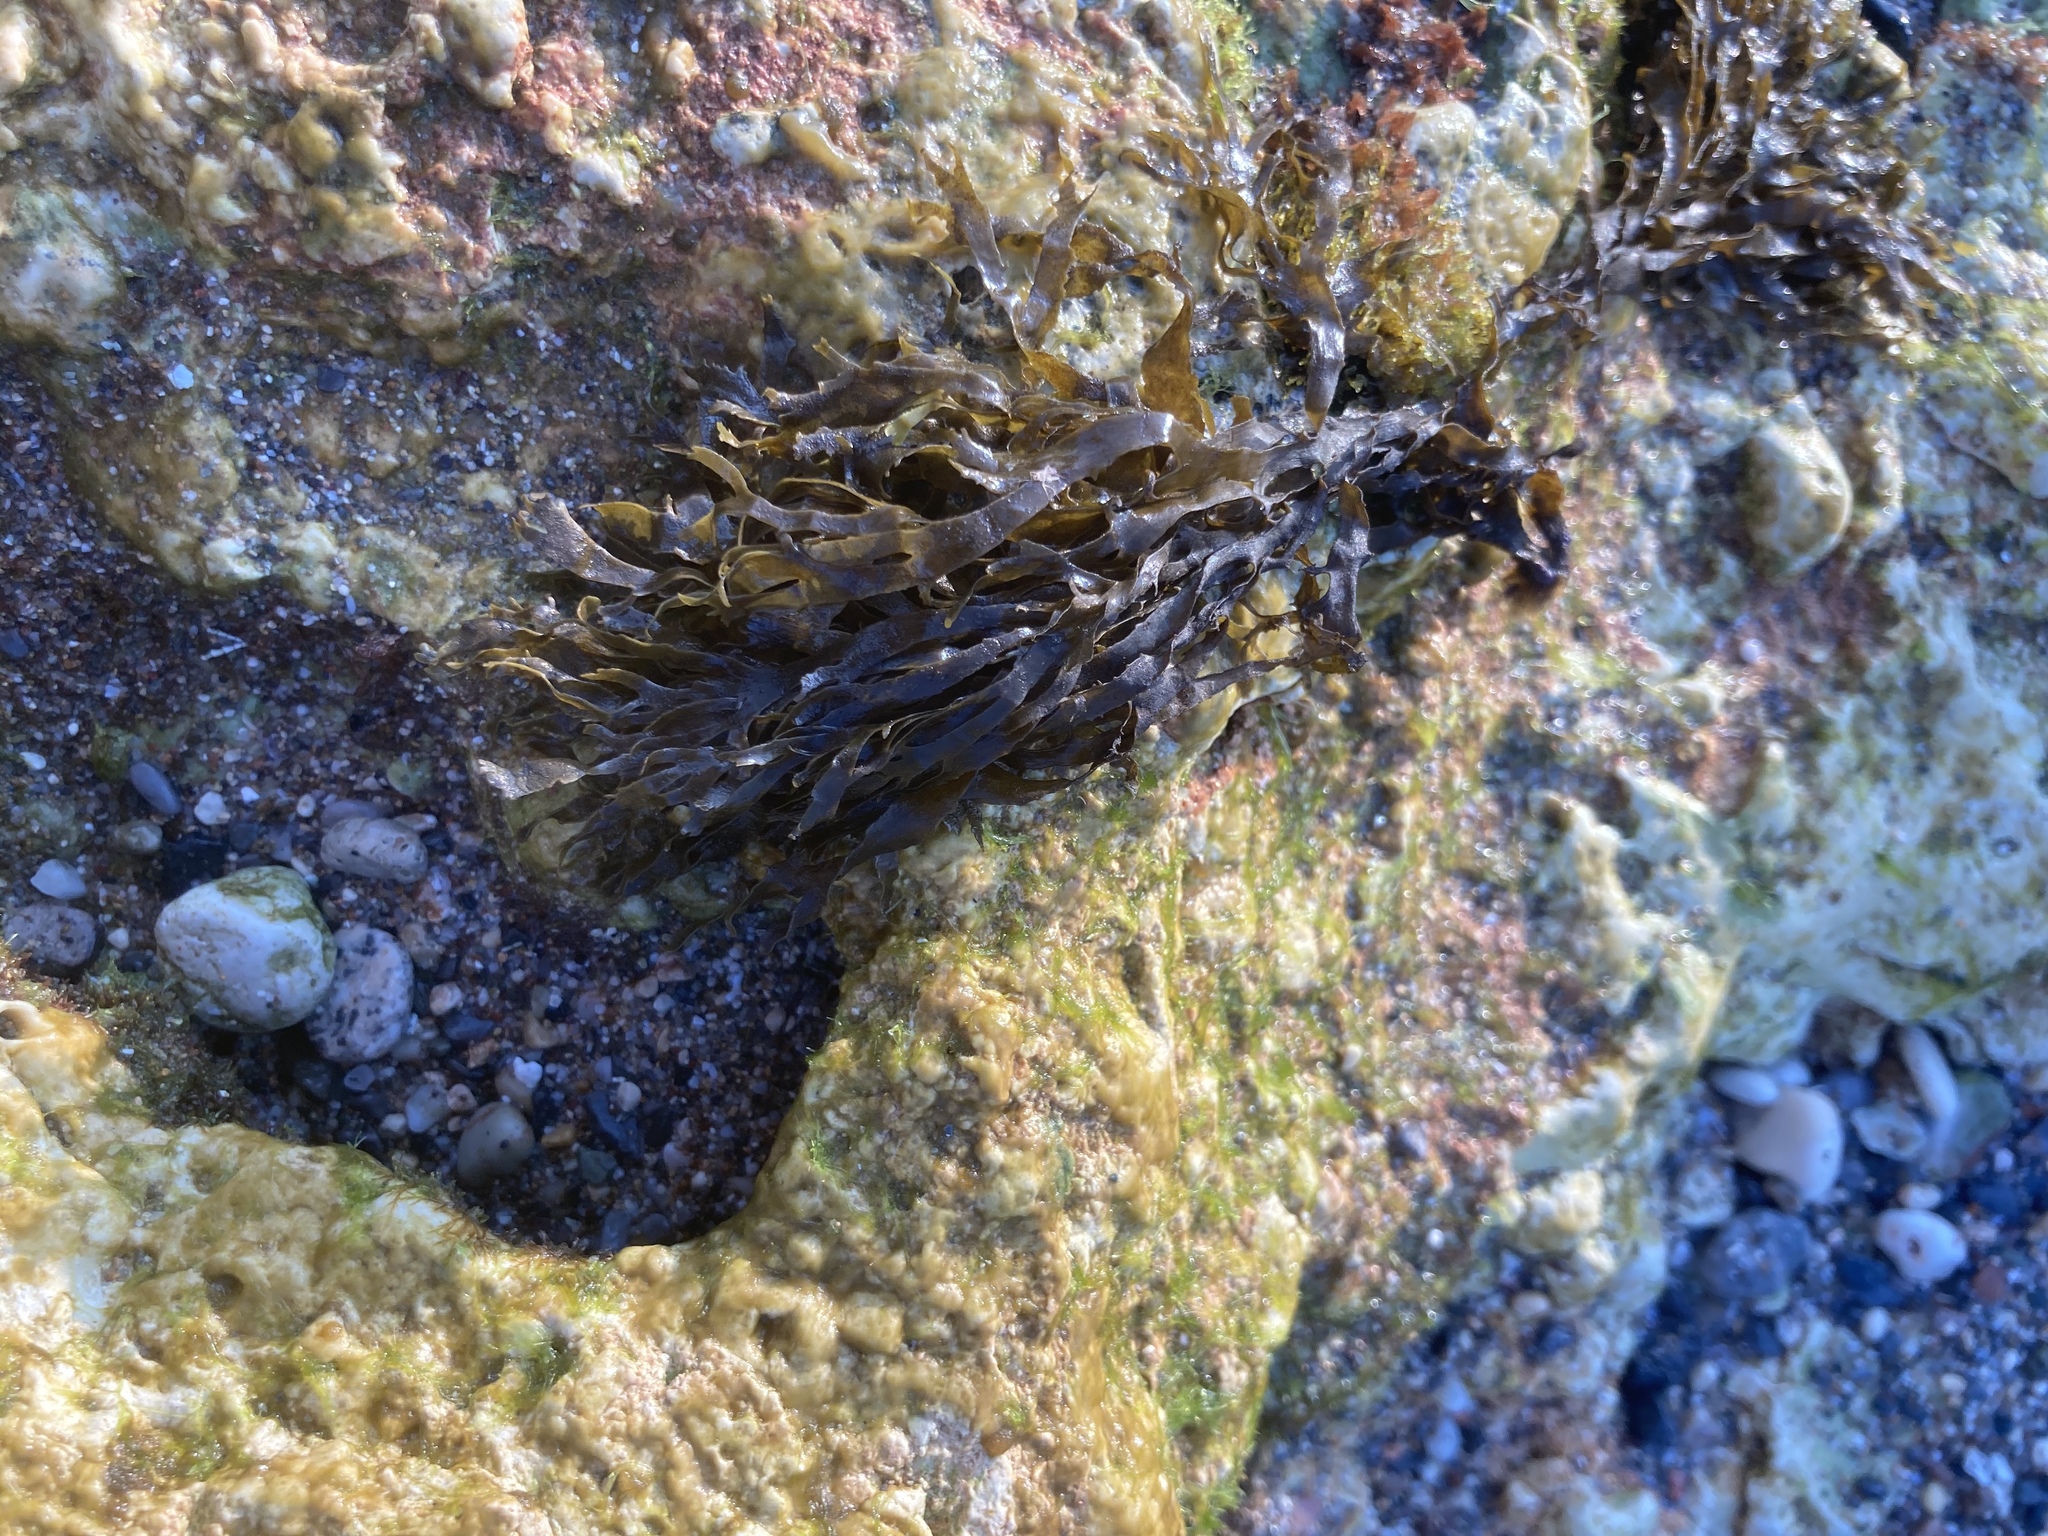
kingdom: Chromista
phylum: Ochrophyta
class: Phaeophyceae
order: Dictyotales
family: Dictyotaceae
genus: Dictyota
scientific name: Dictyota dichotoma
